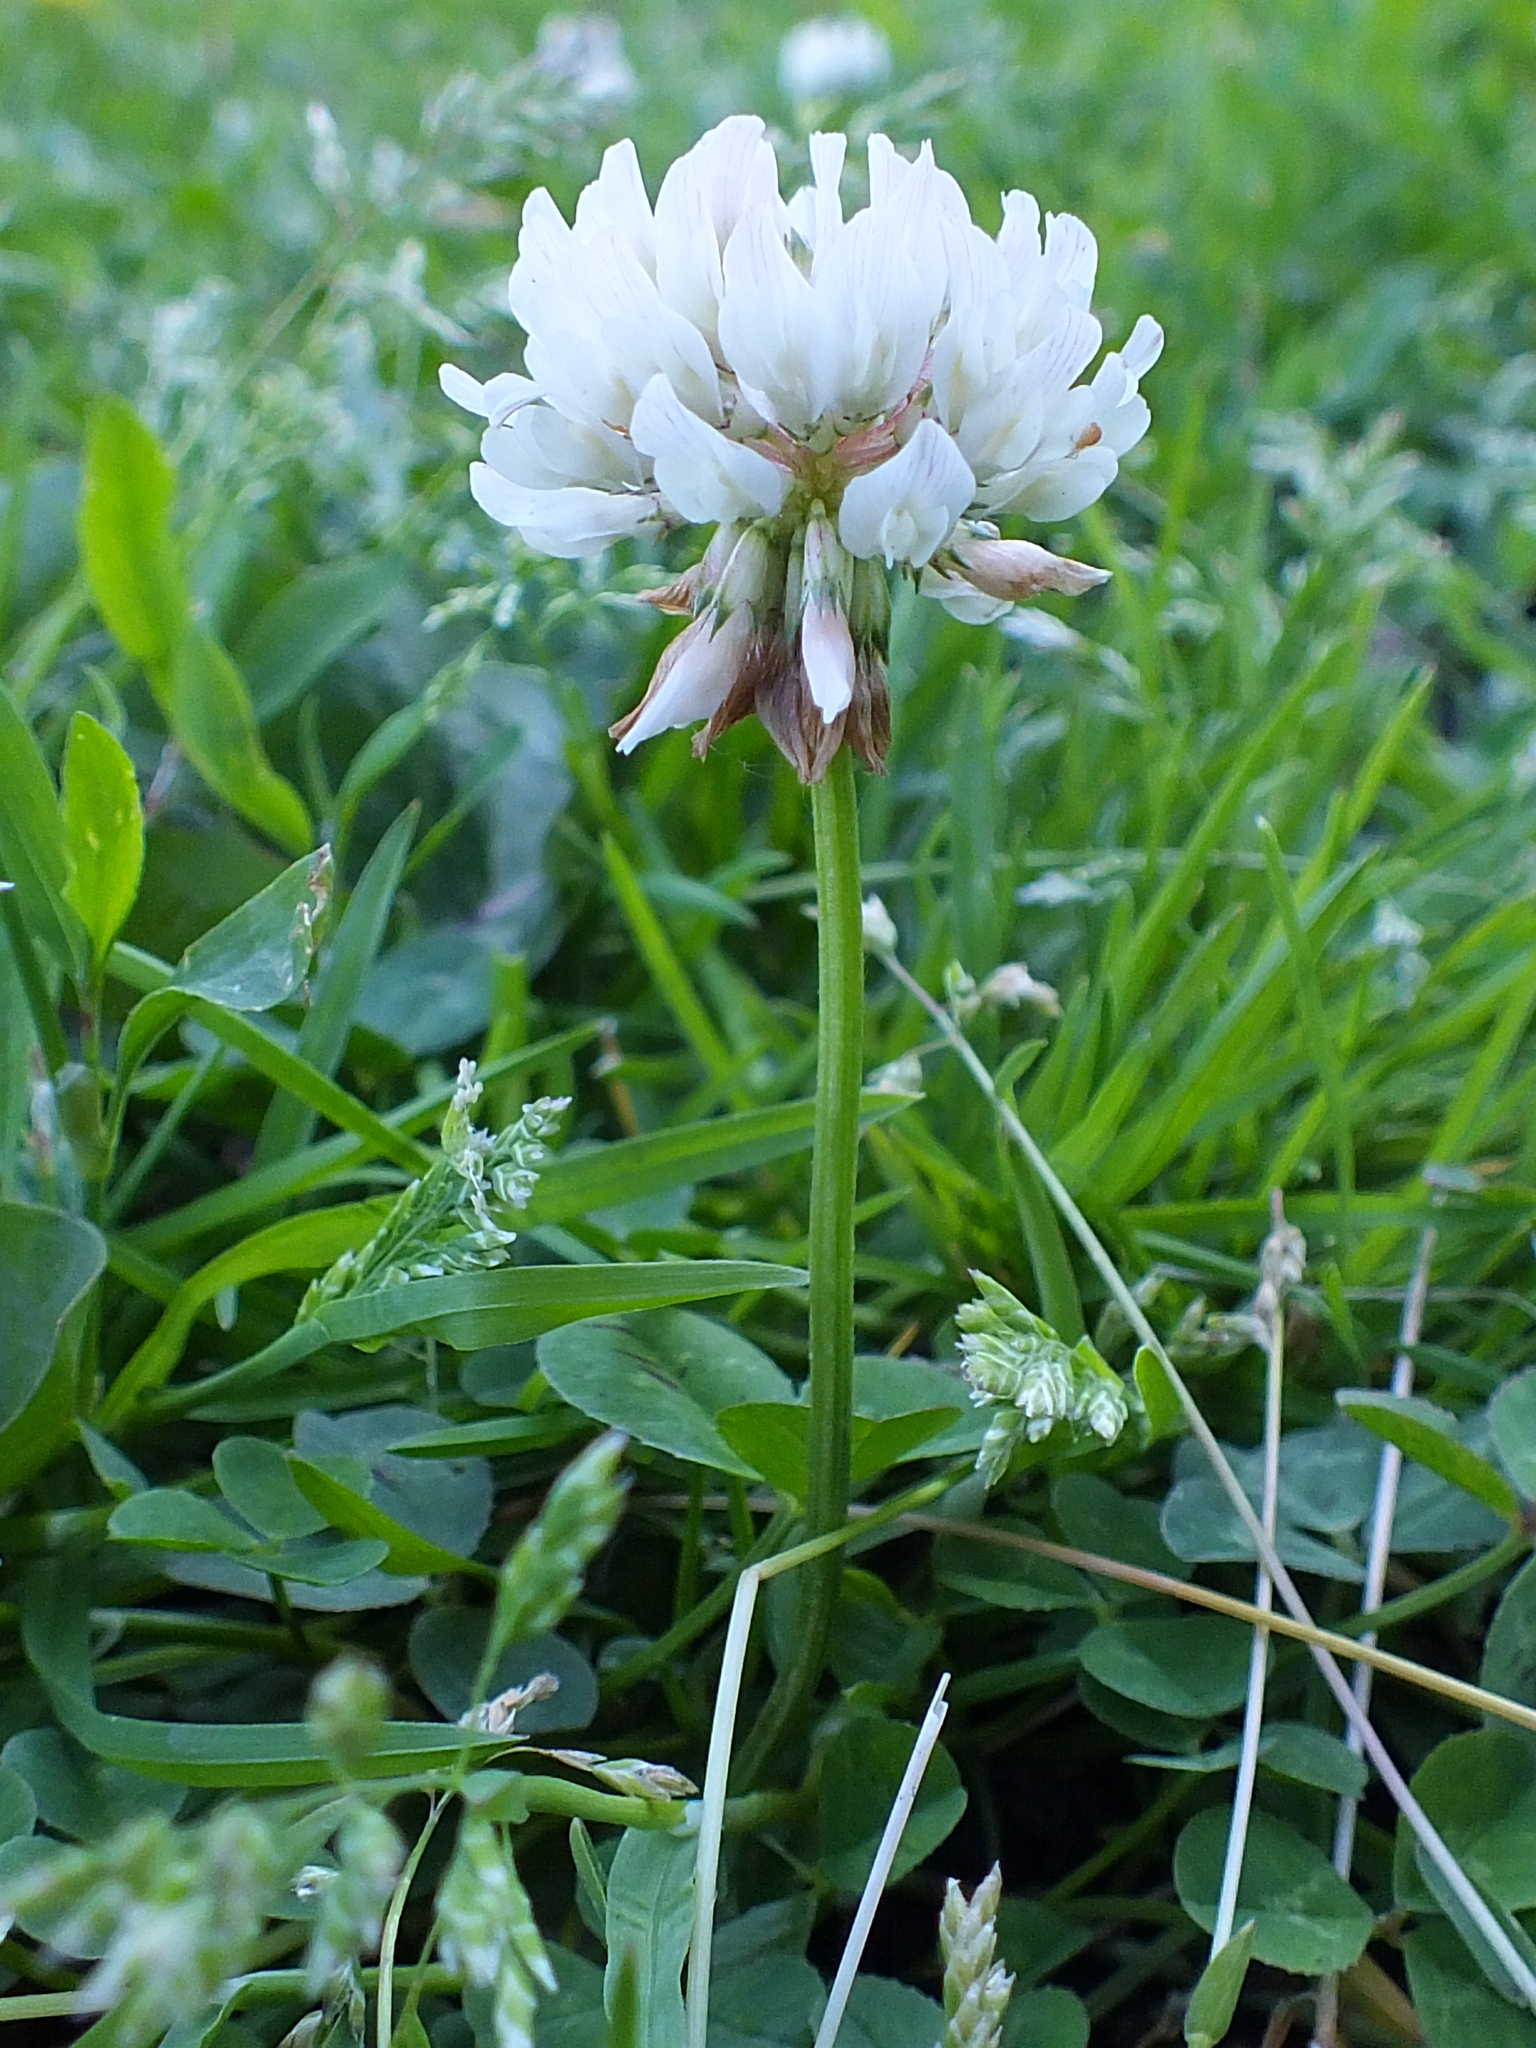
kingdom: Plantae
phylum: Tracheophyta
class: Magnoliopsida
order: Fabales
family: Fabaceae
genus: Trifolium
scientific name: Trifolium repens
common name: White clover
